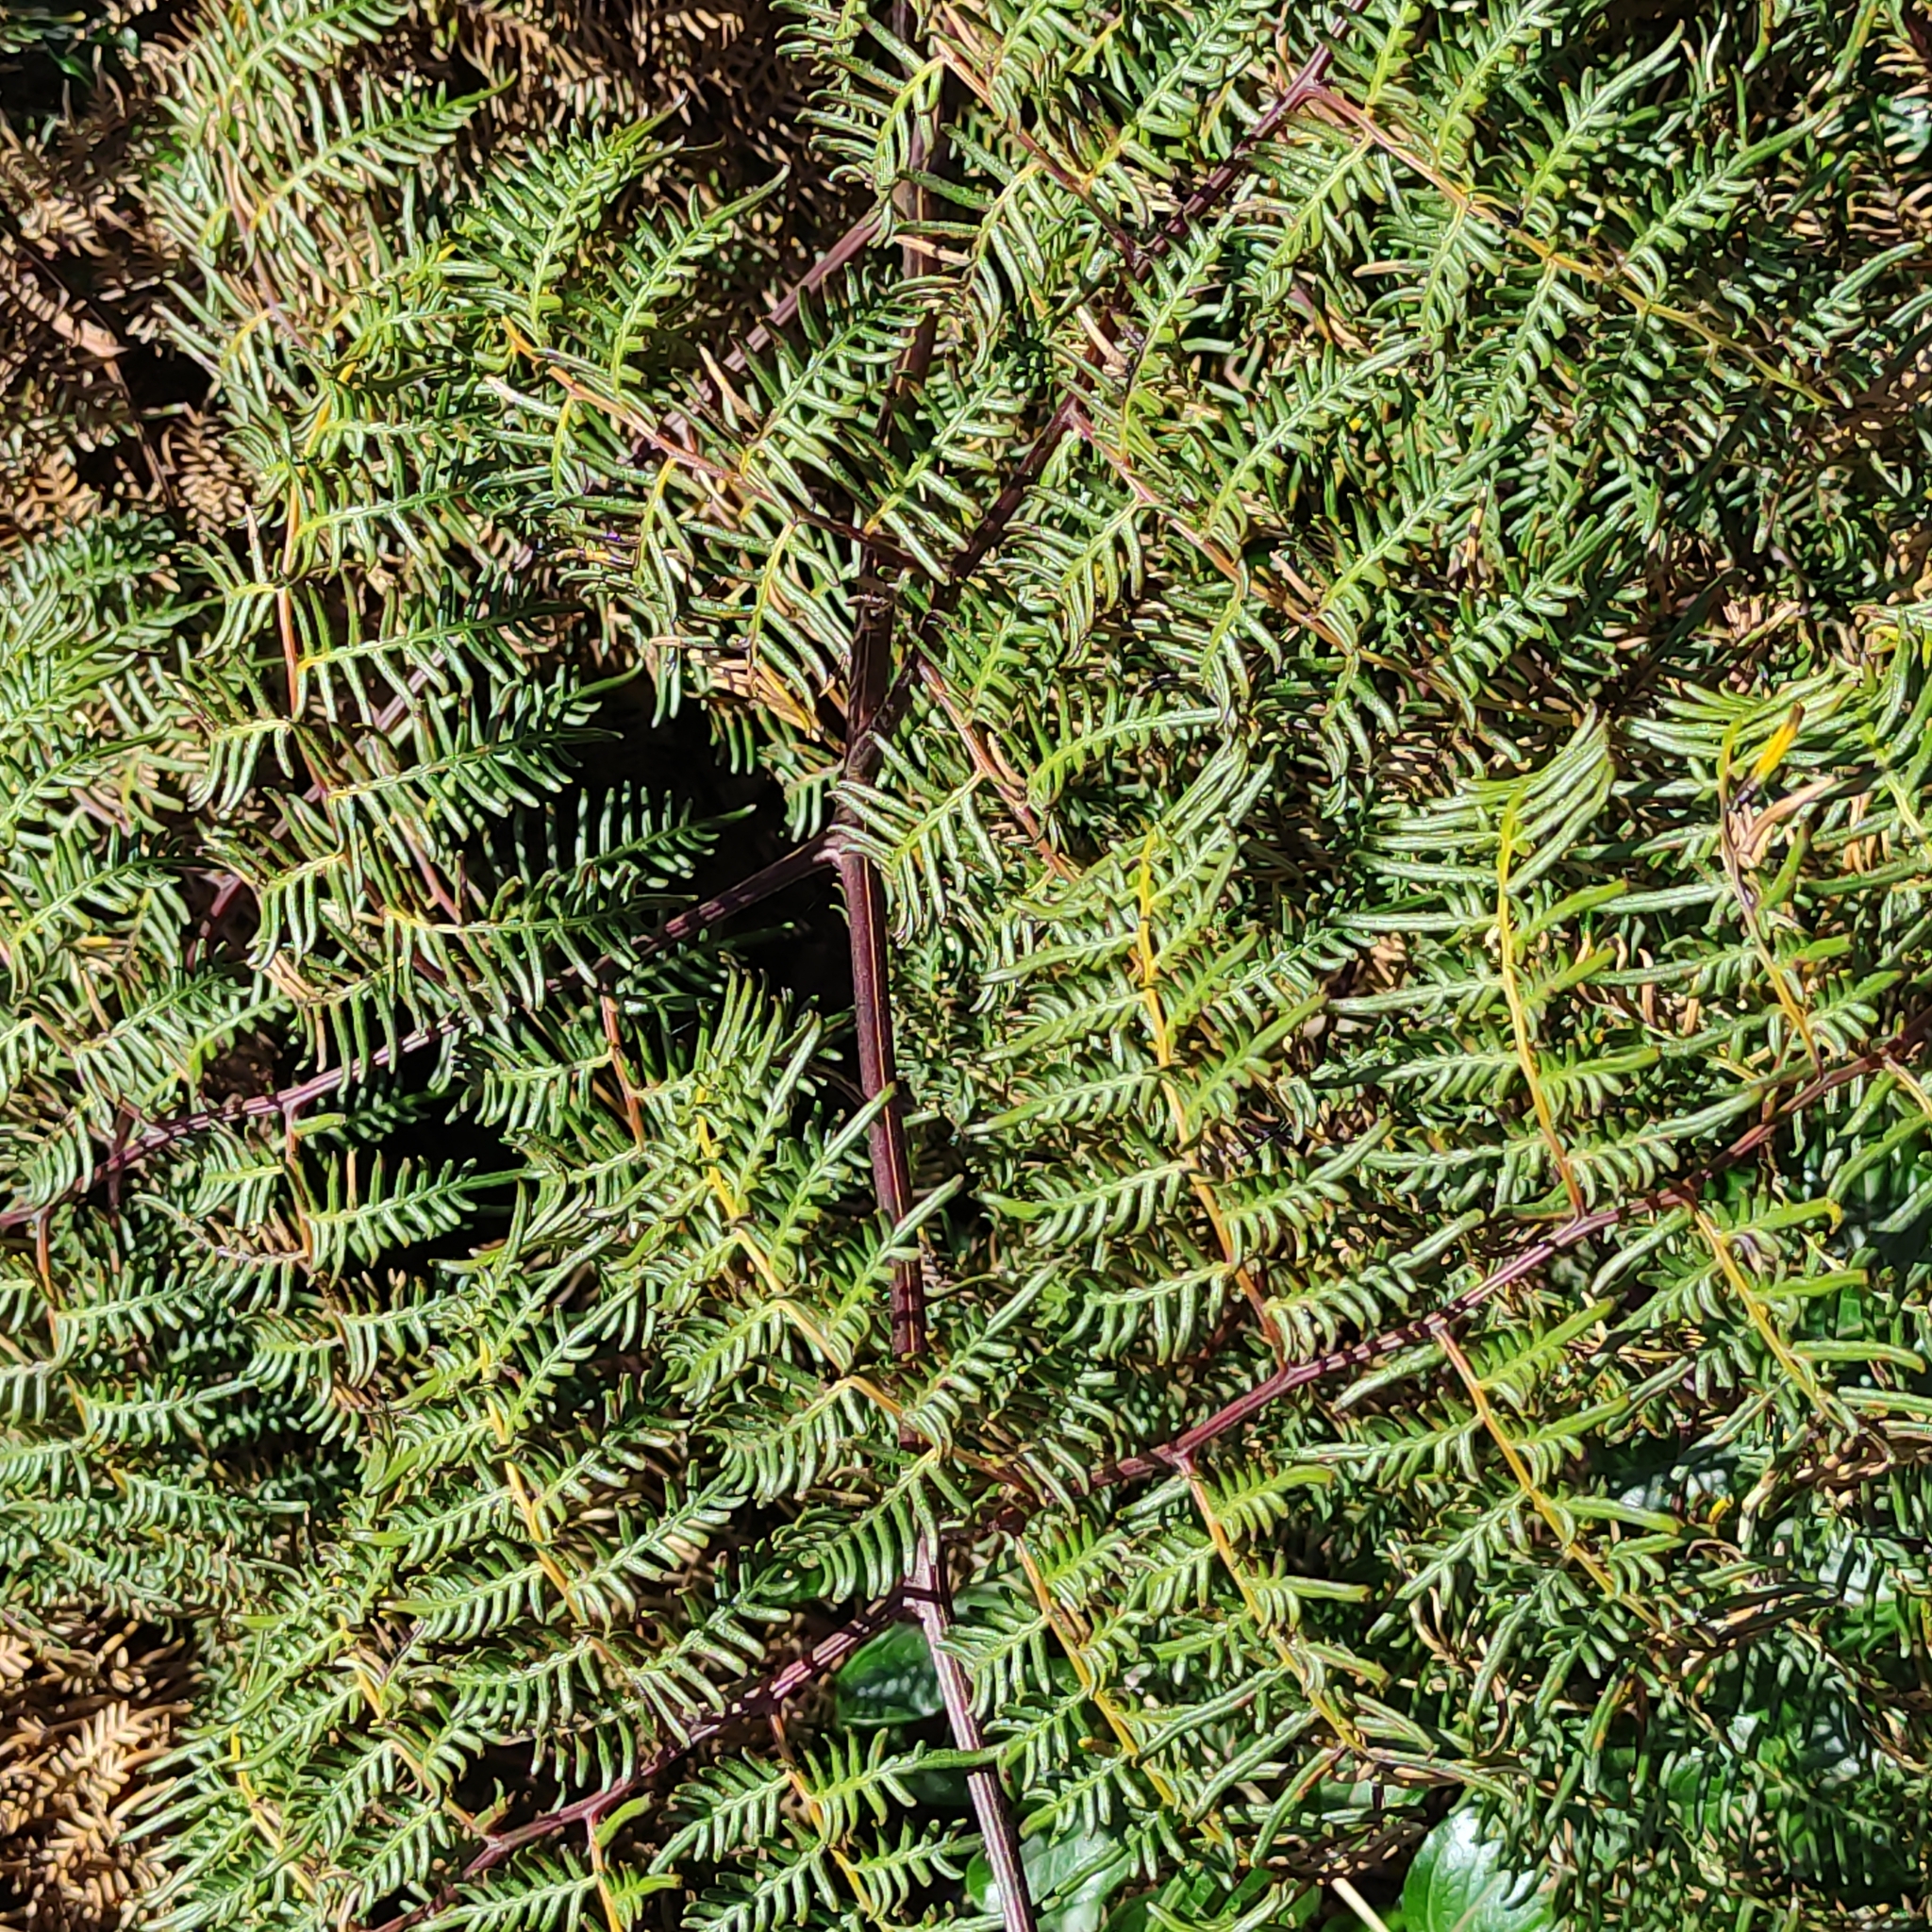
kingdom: Plantae
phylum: Tracheophyta
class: Polypodiopsida
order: Polypodiales
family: Dennstaedtiaceae
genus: Pteridium
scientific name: Pteridium esculentum
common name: Bracken fern
